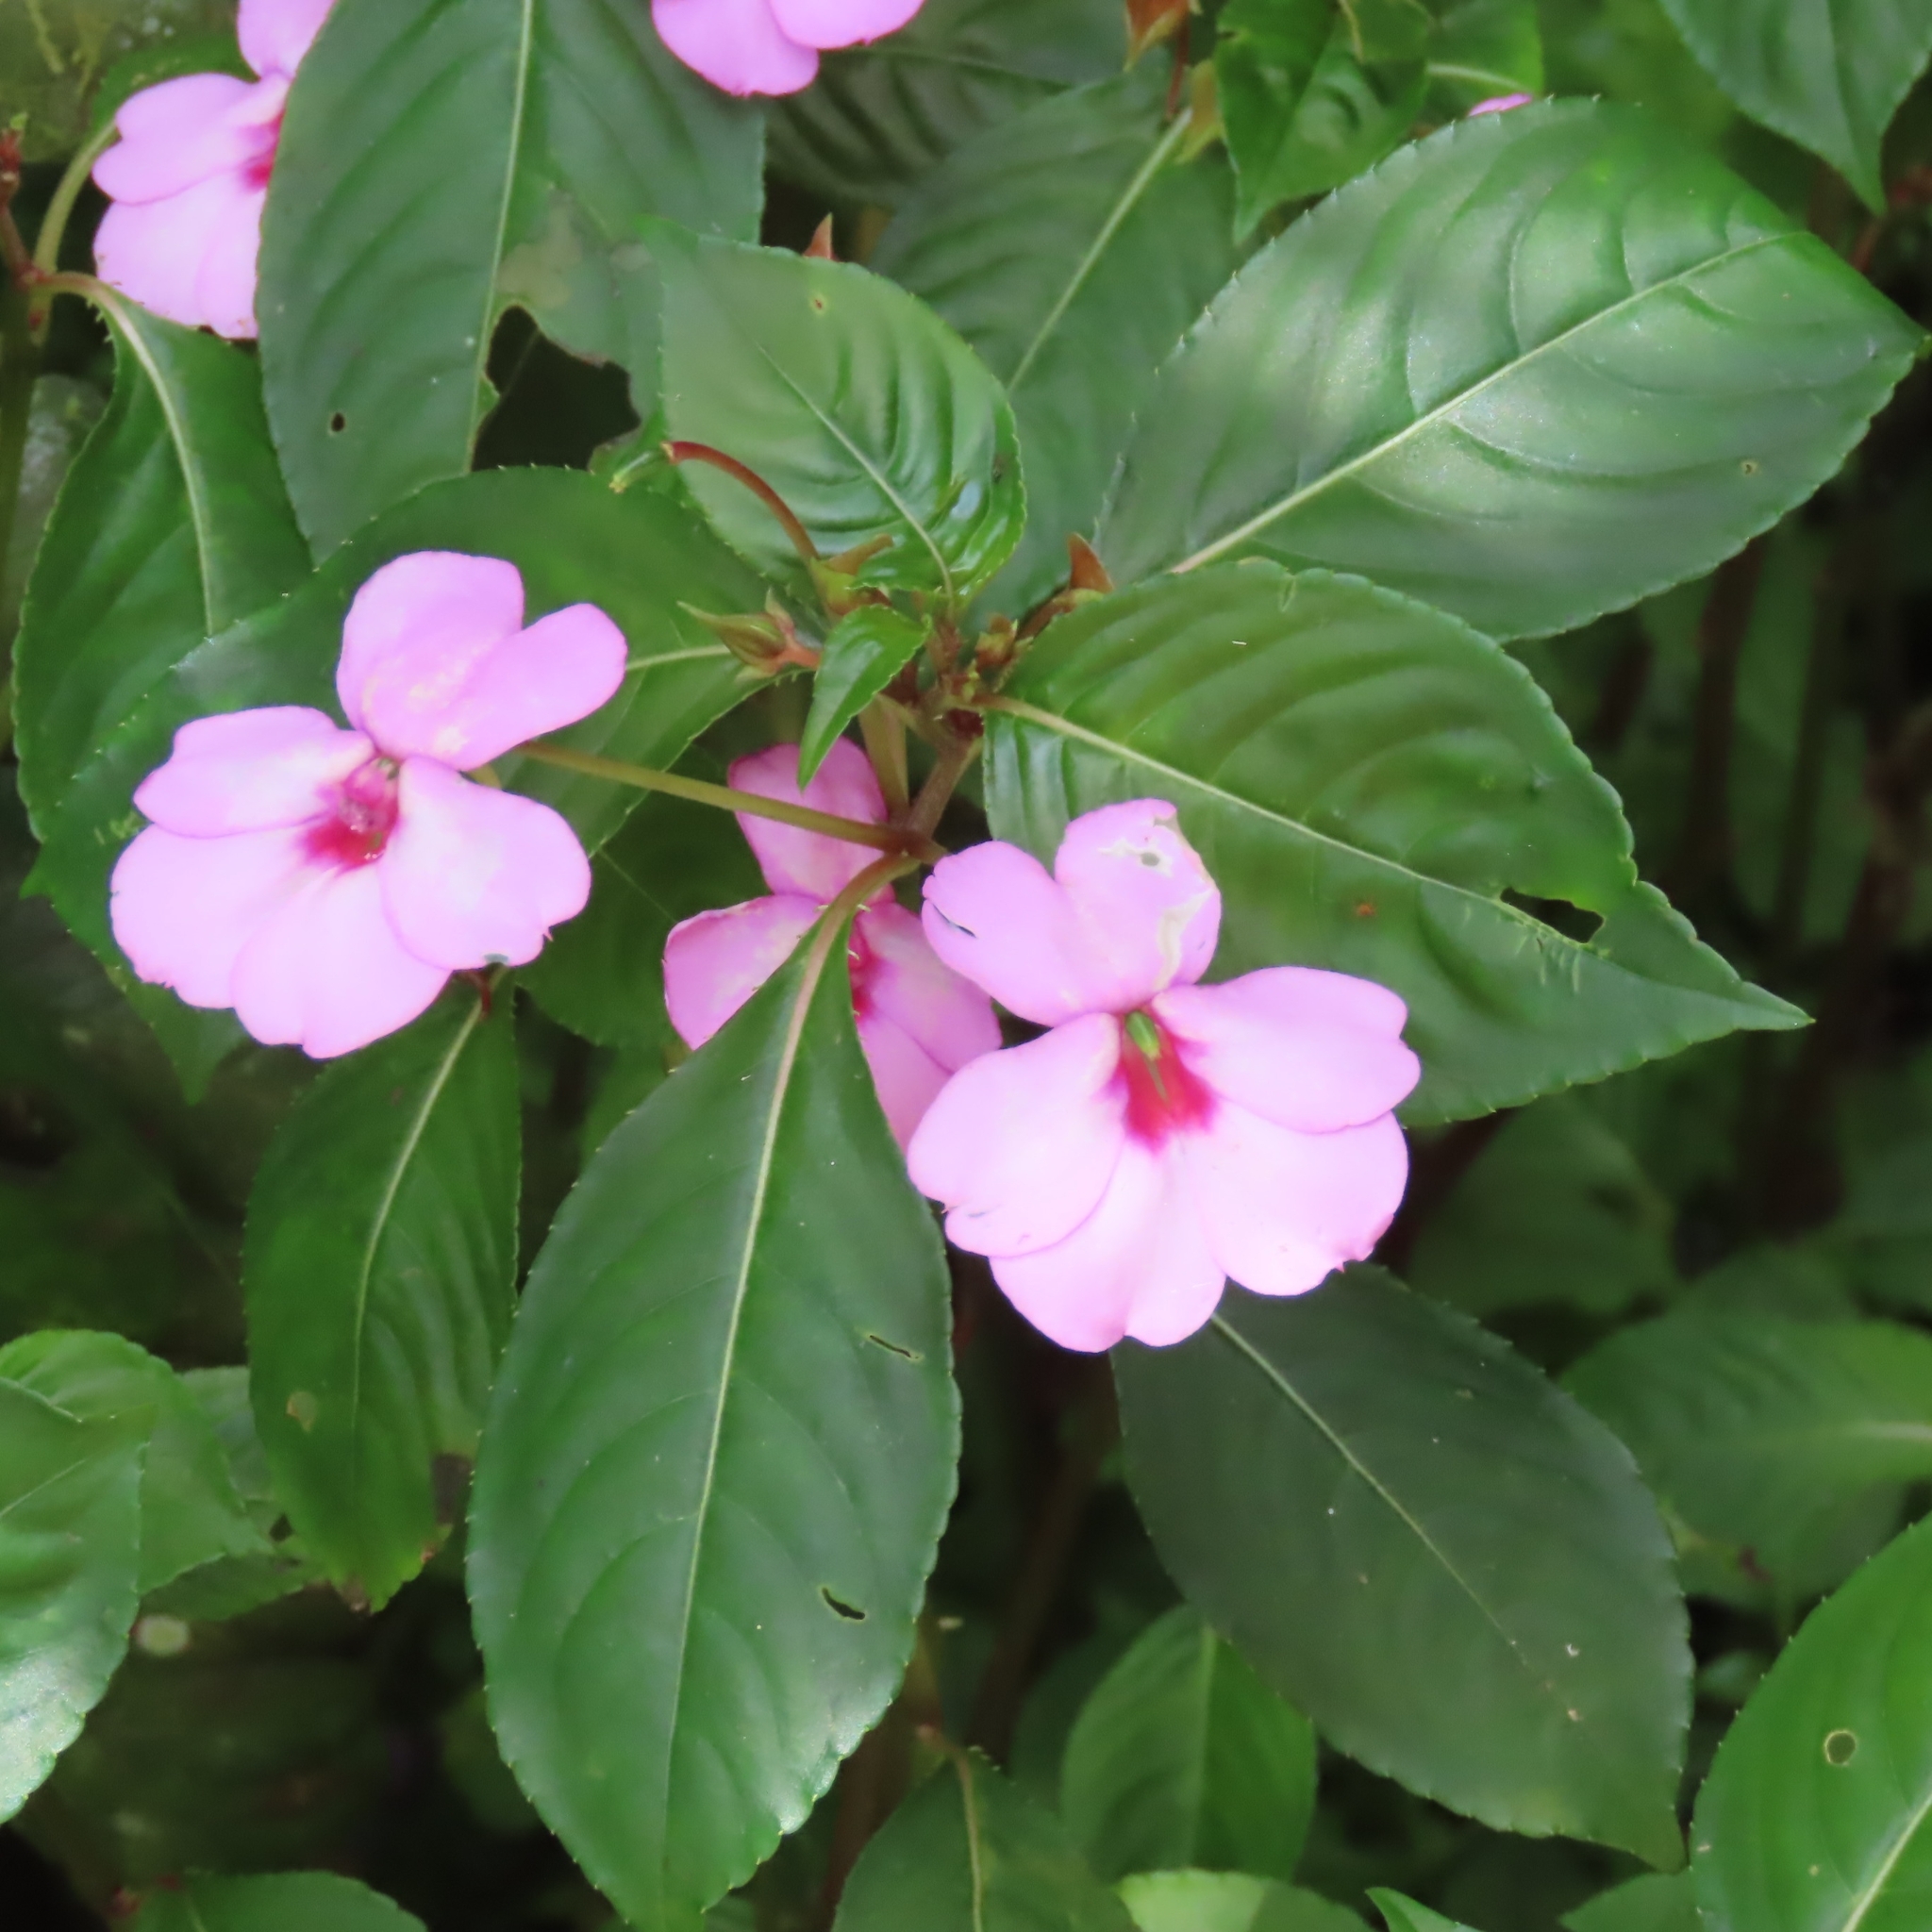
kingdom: Plantae
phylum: Tracheophyta
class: Magnoliopsida
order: Ericales
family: Balsaminaceae
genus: Impatiens
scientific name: Impatiens flaccida
